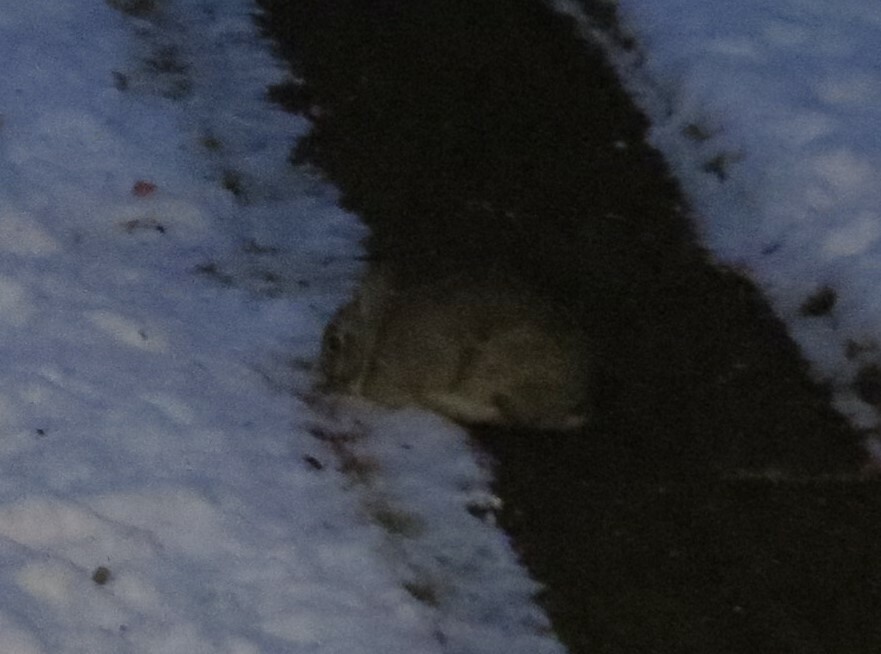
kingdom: Animalia
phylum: Chordata
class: Mammalia
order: Lagomorpha
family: Leporidae
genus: Sylvilagus
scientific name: Sylvilagus floridanus
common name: Eastern cottontail
